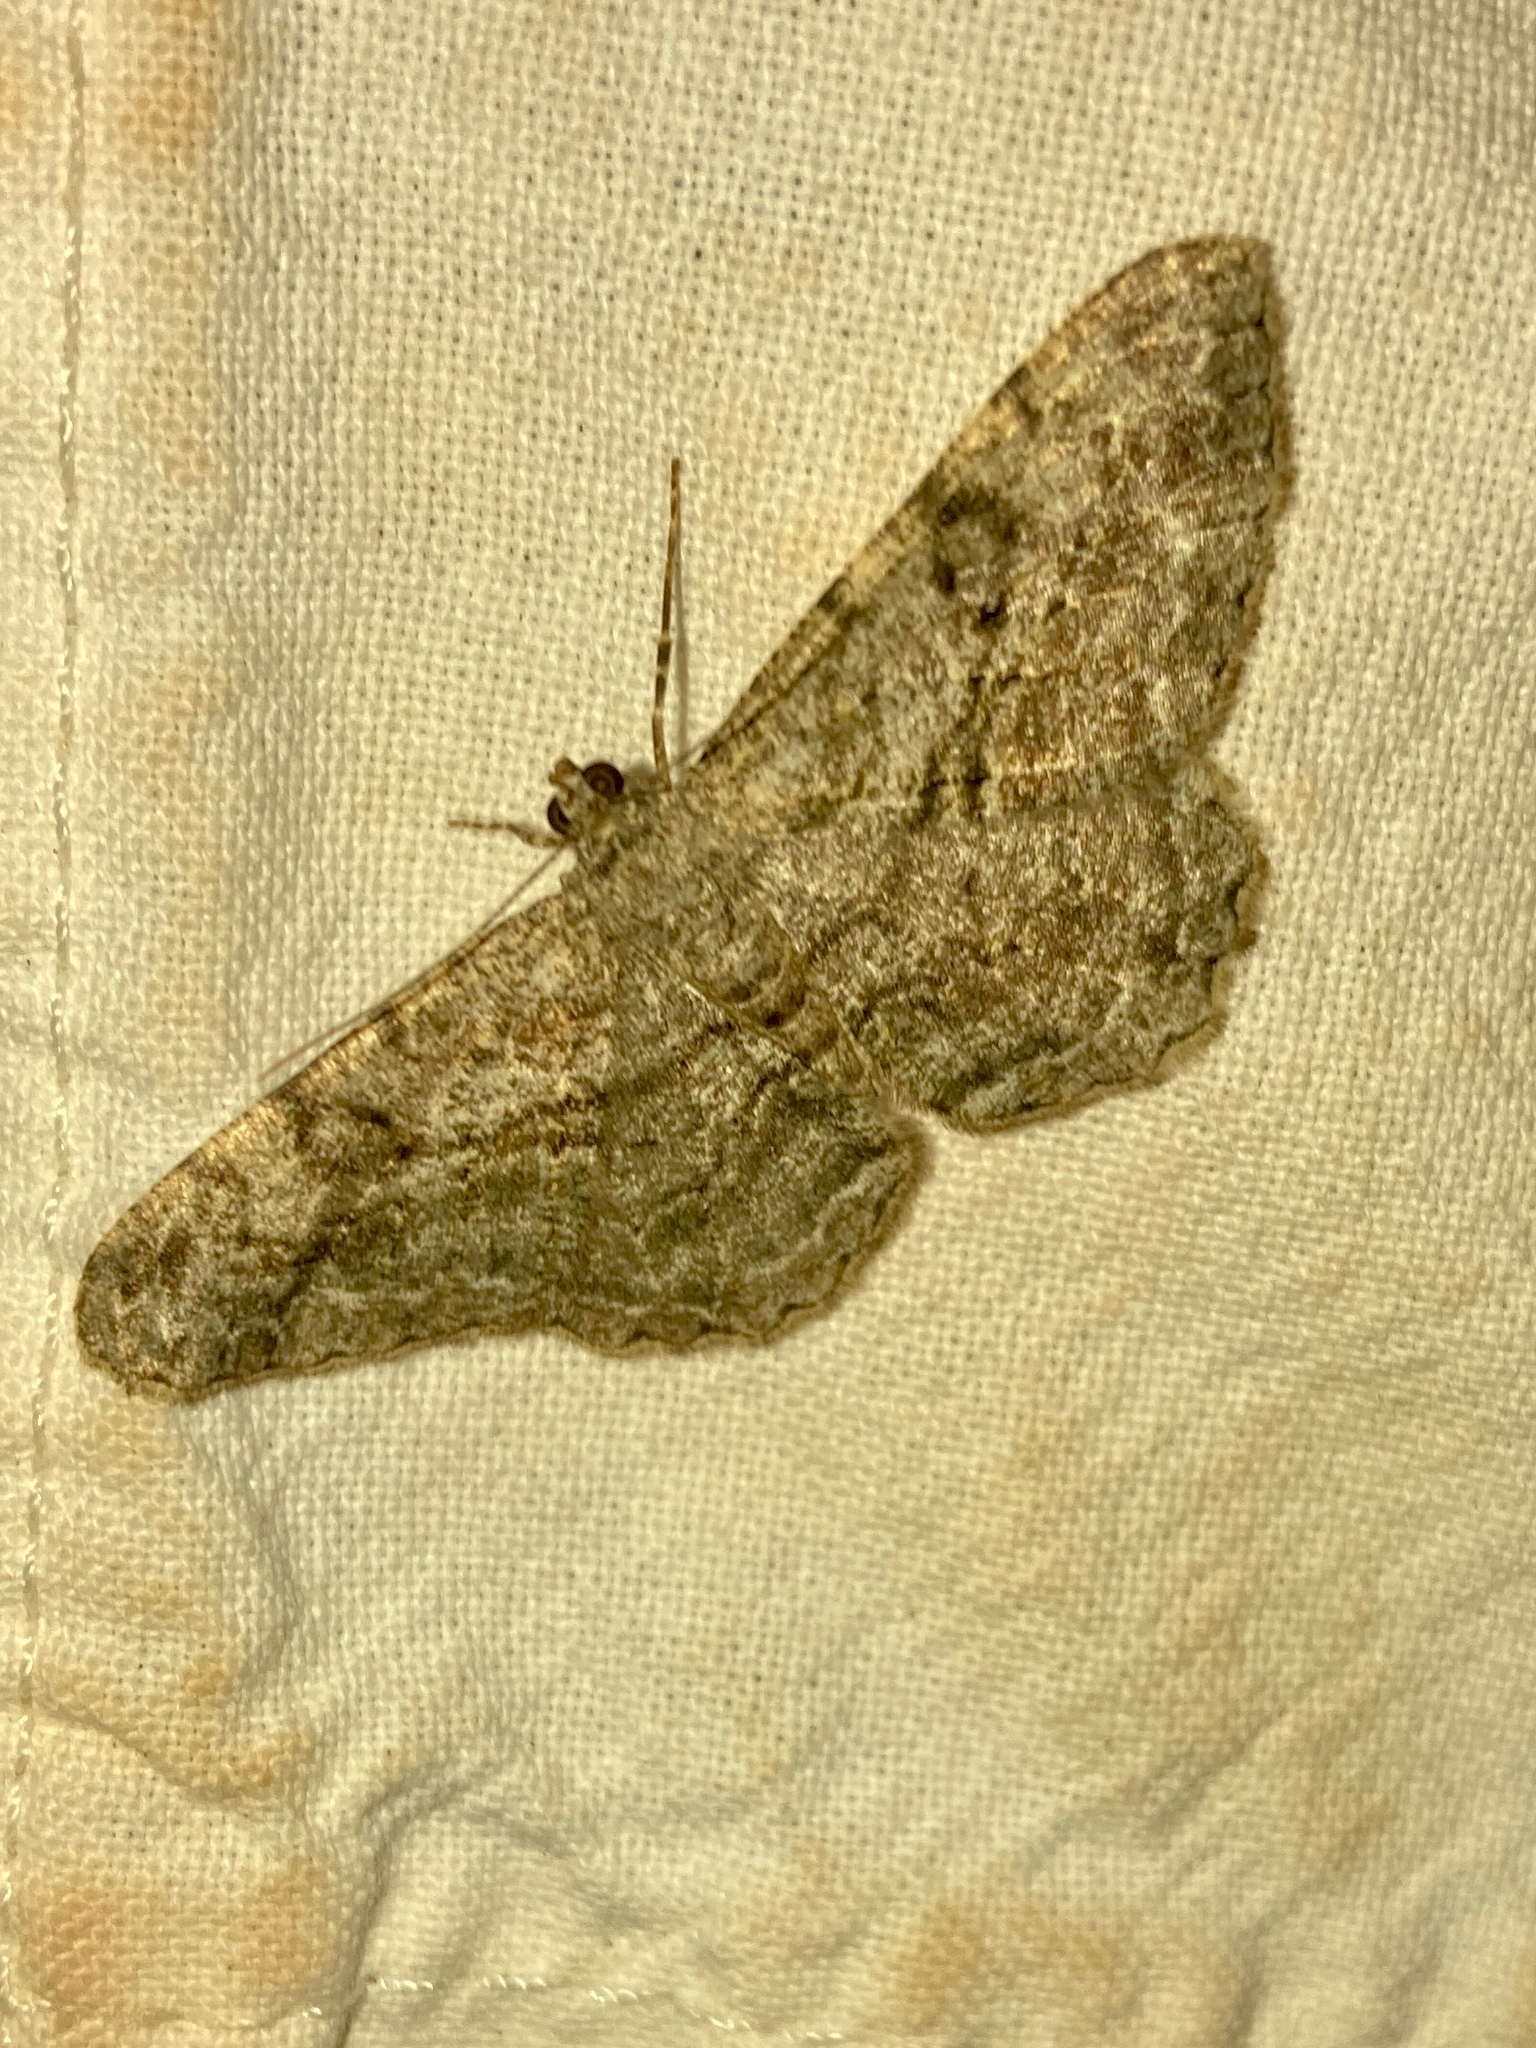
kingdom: Animalia
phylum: Arthropoda
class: Insecta
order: Lepidoptera
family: Geometridae
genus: Peribatodes
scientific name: Peribatodes rhomboidaria
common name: Willow beauty
